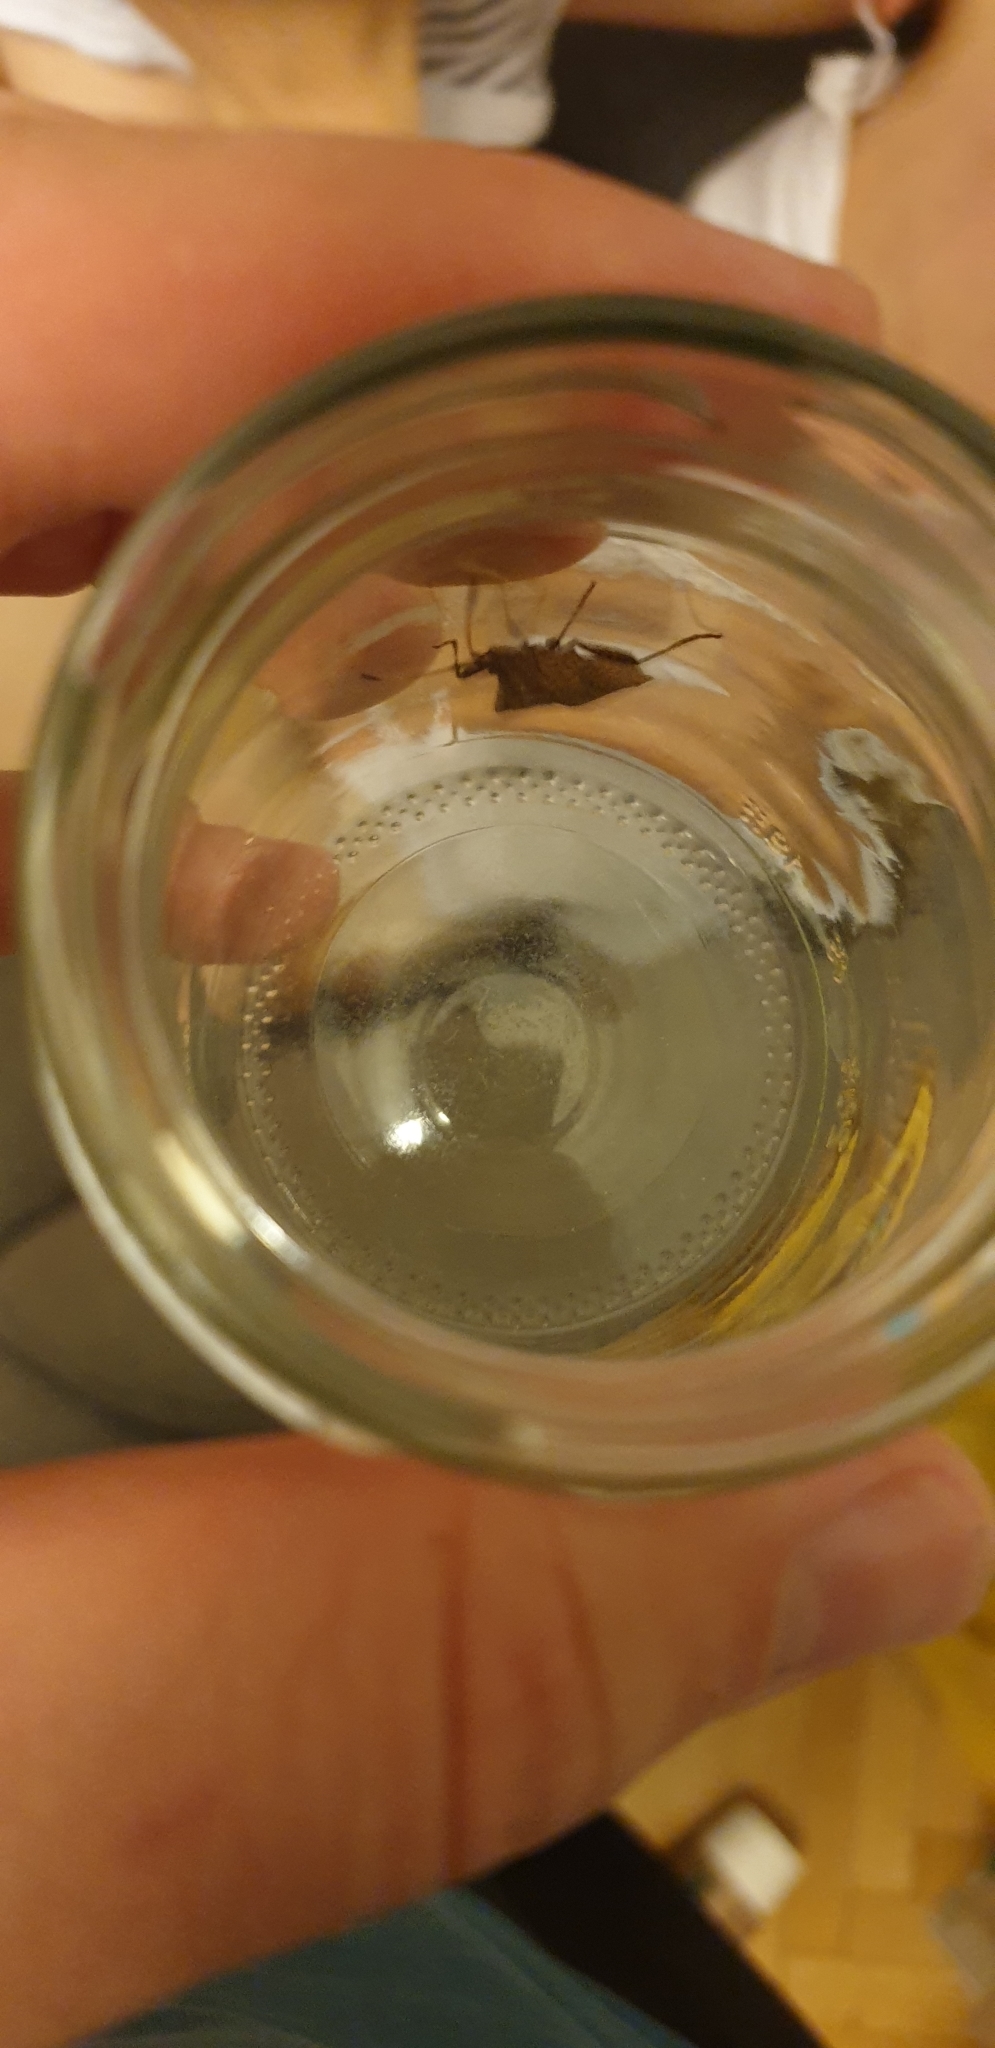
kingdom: Animalia
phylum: Arthropoda
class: Insecta
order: Hemiptera
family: Coreidae
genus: Coreus
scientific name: Coreus marginatus
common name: Dock bug
